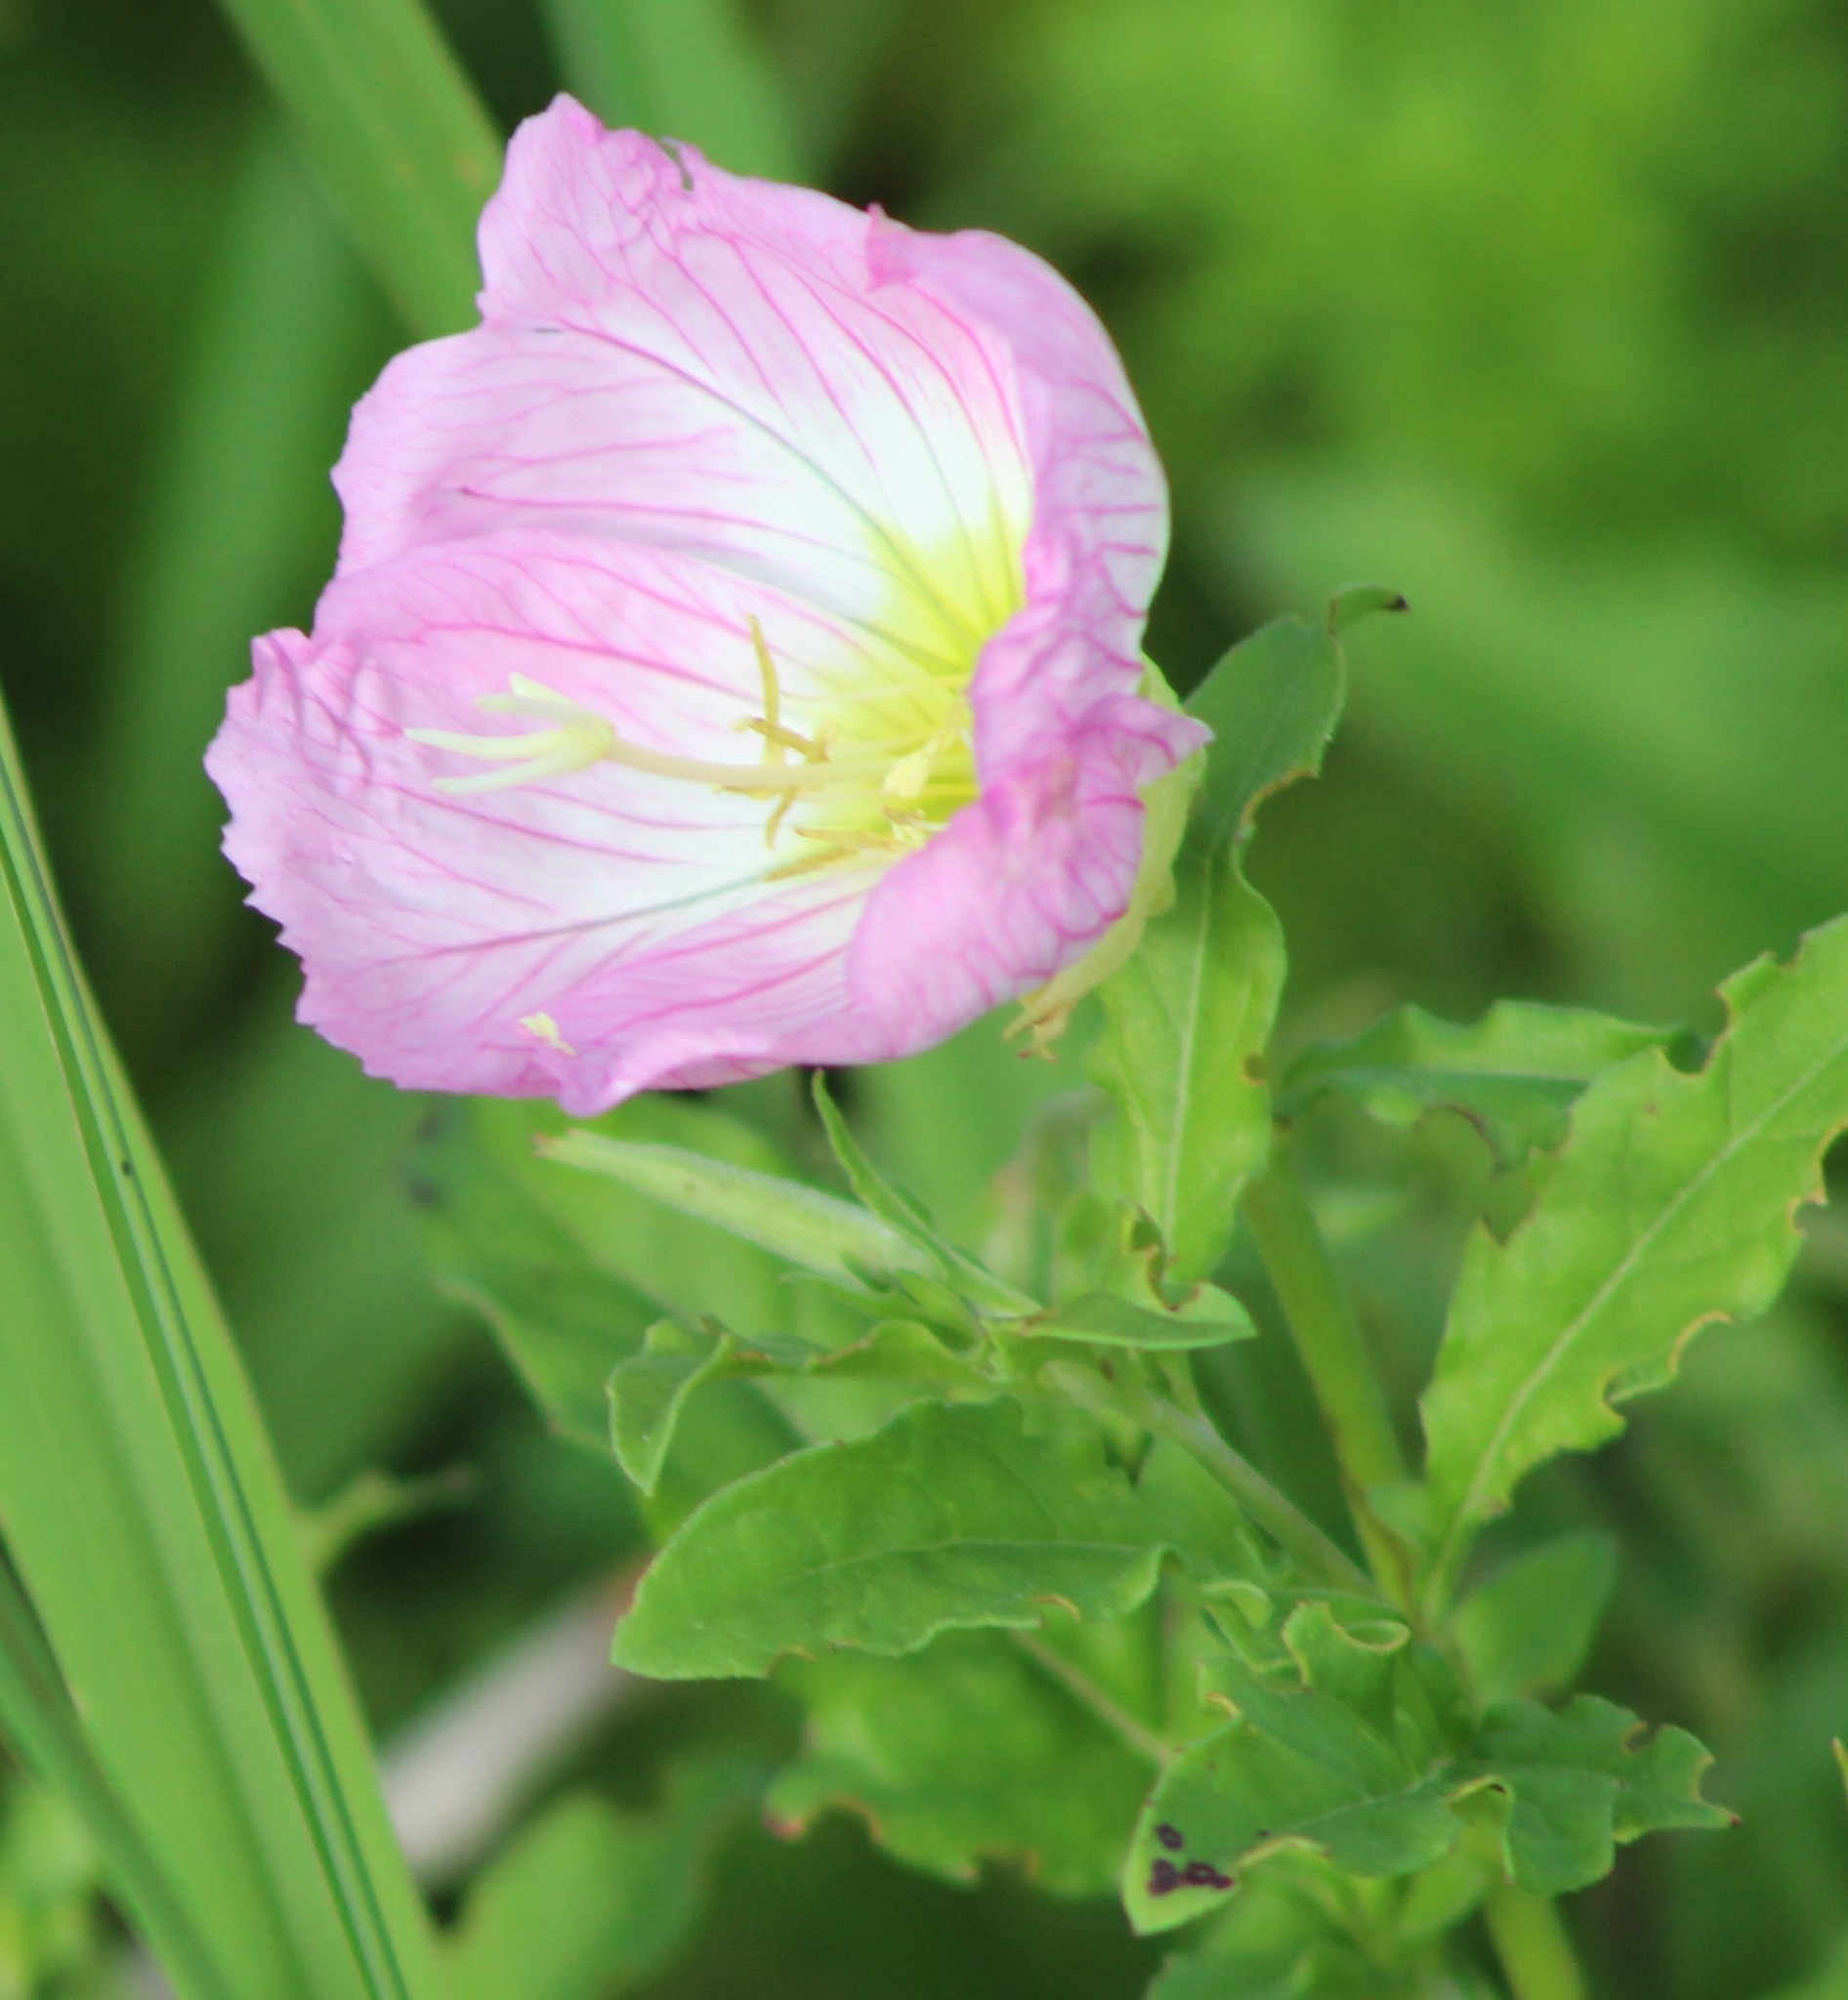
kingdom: Plantae
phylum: Tracheophyta
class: Magnoliopsida
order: Myrtales
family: Onagraceae
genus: Oenothera
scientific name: Oenothera speciosa
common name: White evening-primrose
